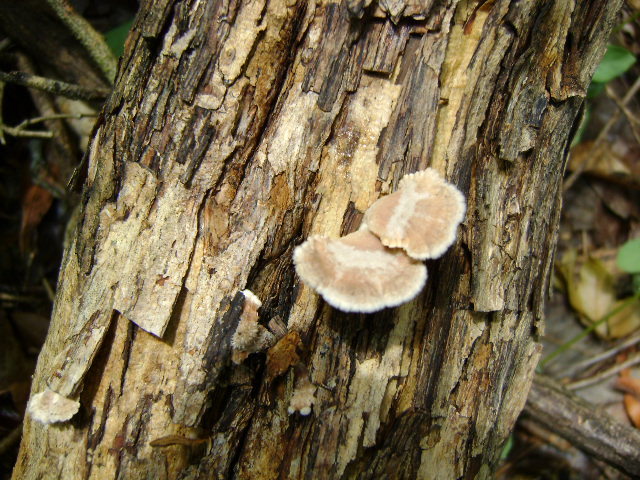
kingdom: Fungi
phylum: Basidiomycota
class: Agaricomycetes
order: Agaricales
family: Schizophyllaceae
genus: Schizophyllum
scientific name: Schizophyllum umbrinum
